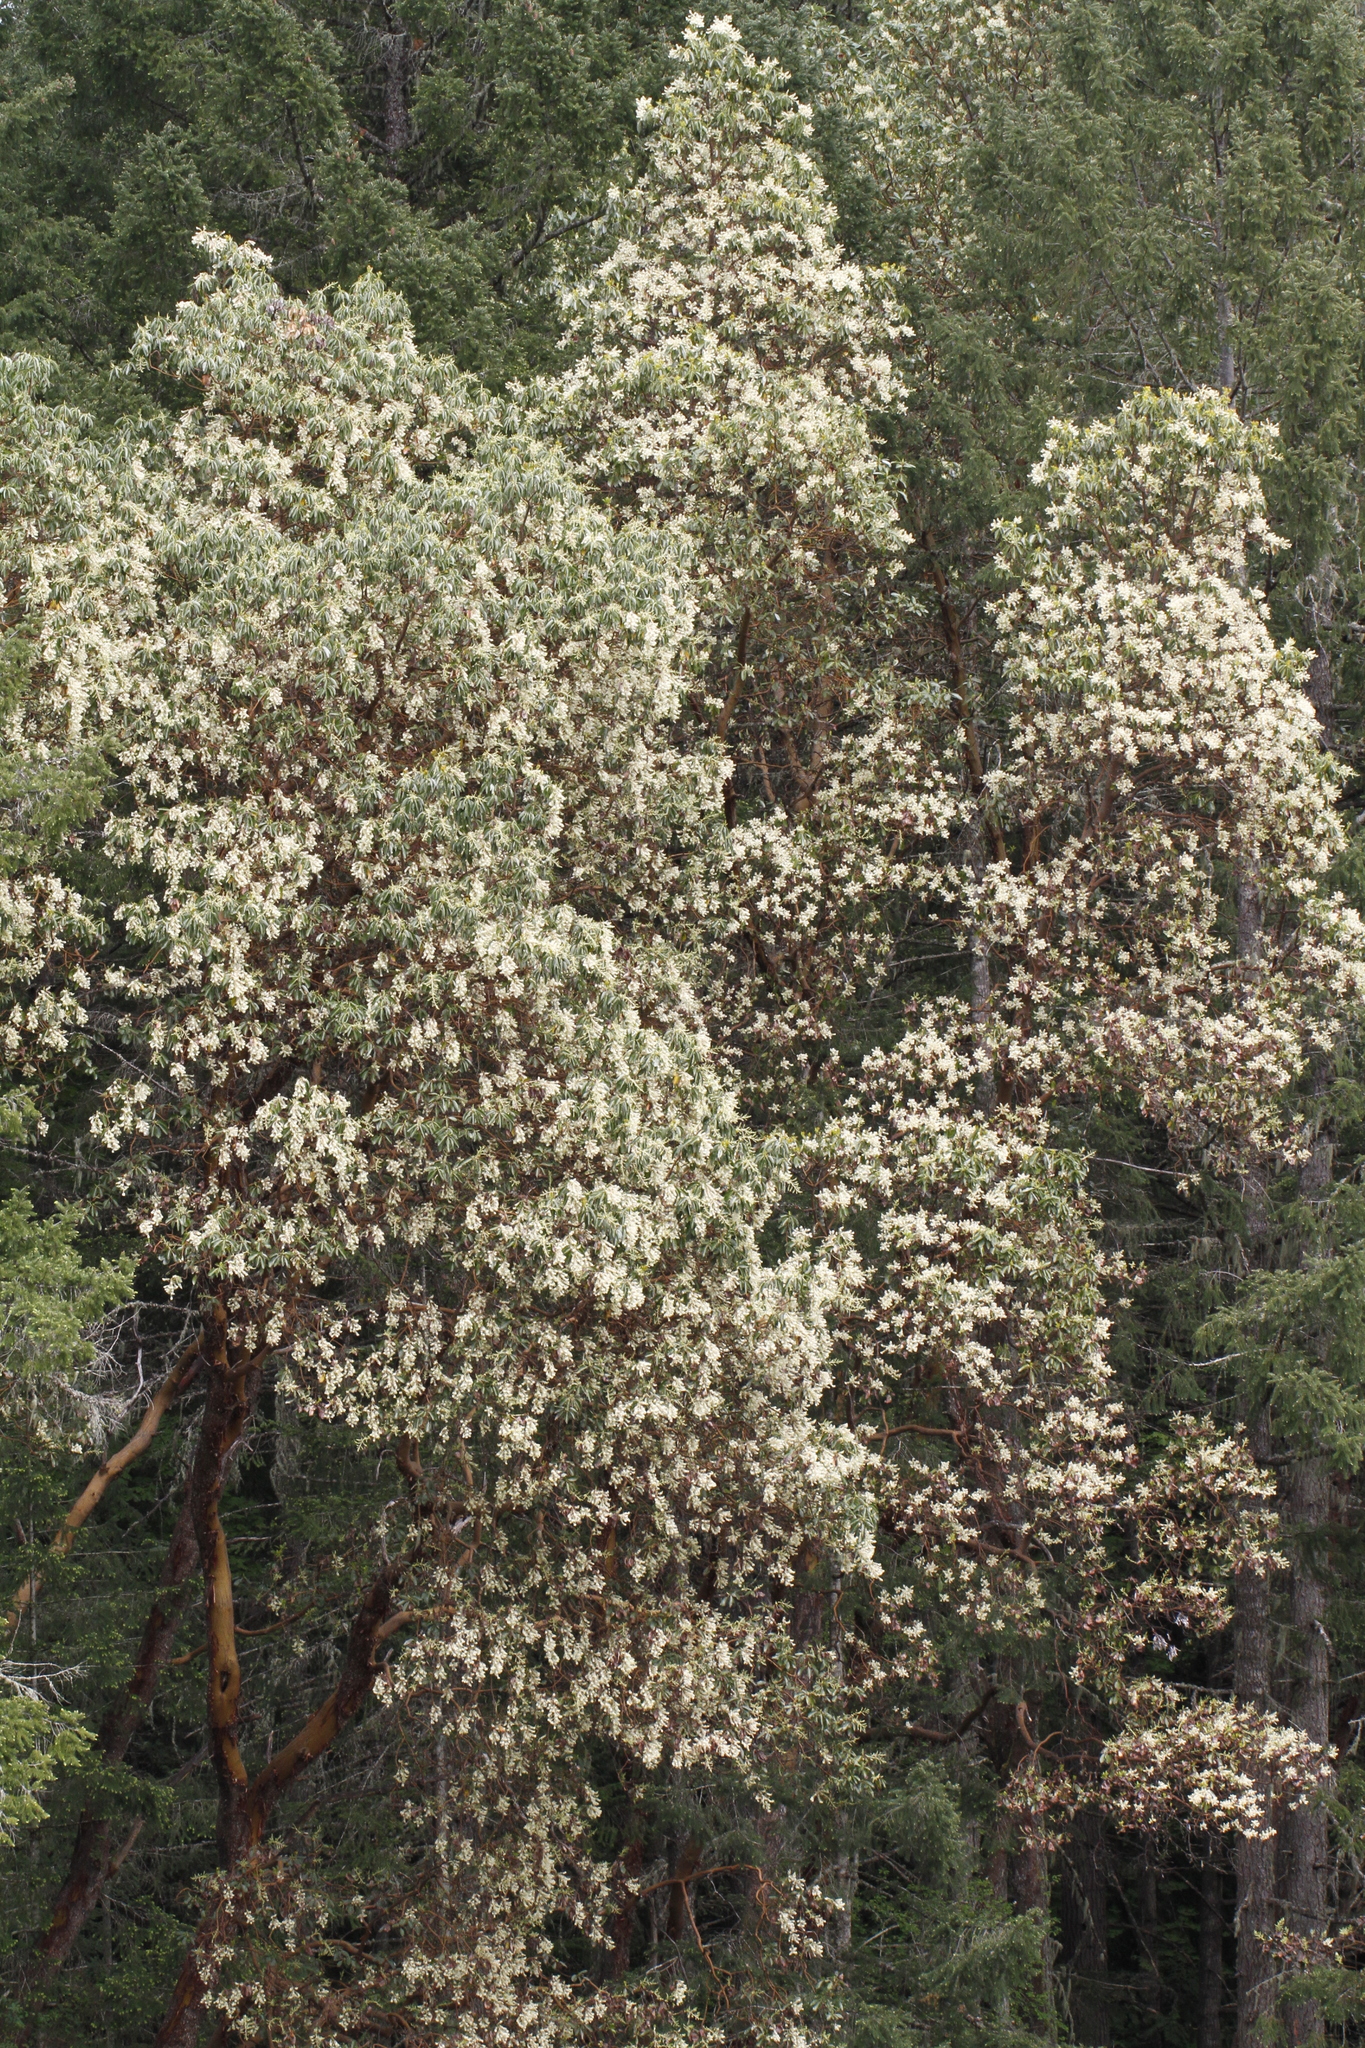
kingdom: Plantae
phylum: Tracheophyta
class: Magnoliopsida
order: Ericales
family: Ericaceae
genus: Arbutus
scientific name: Arbutus menziesii
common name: Pacific madrone
